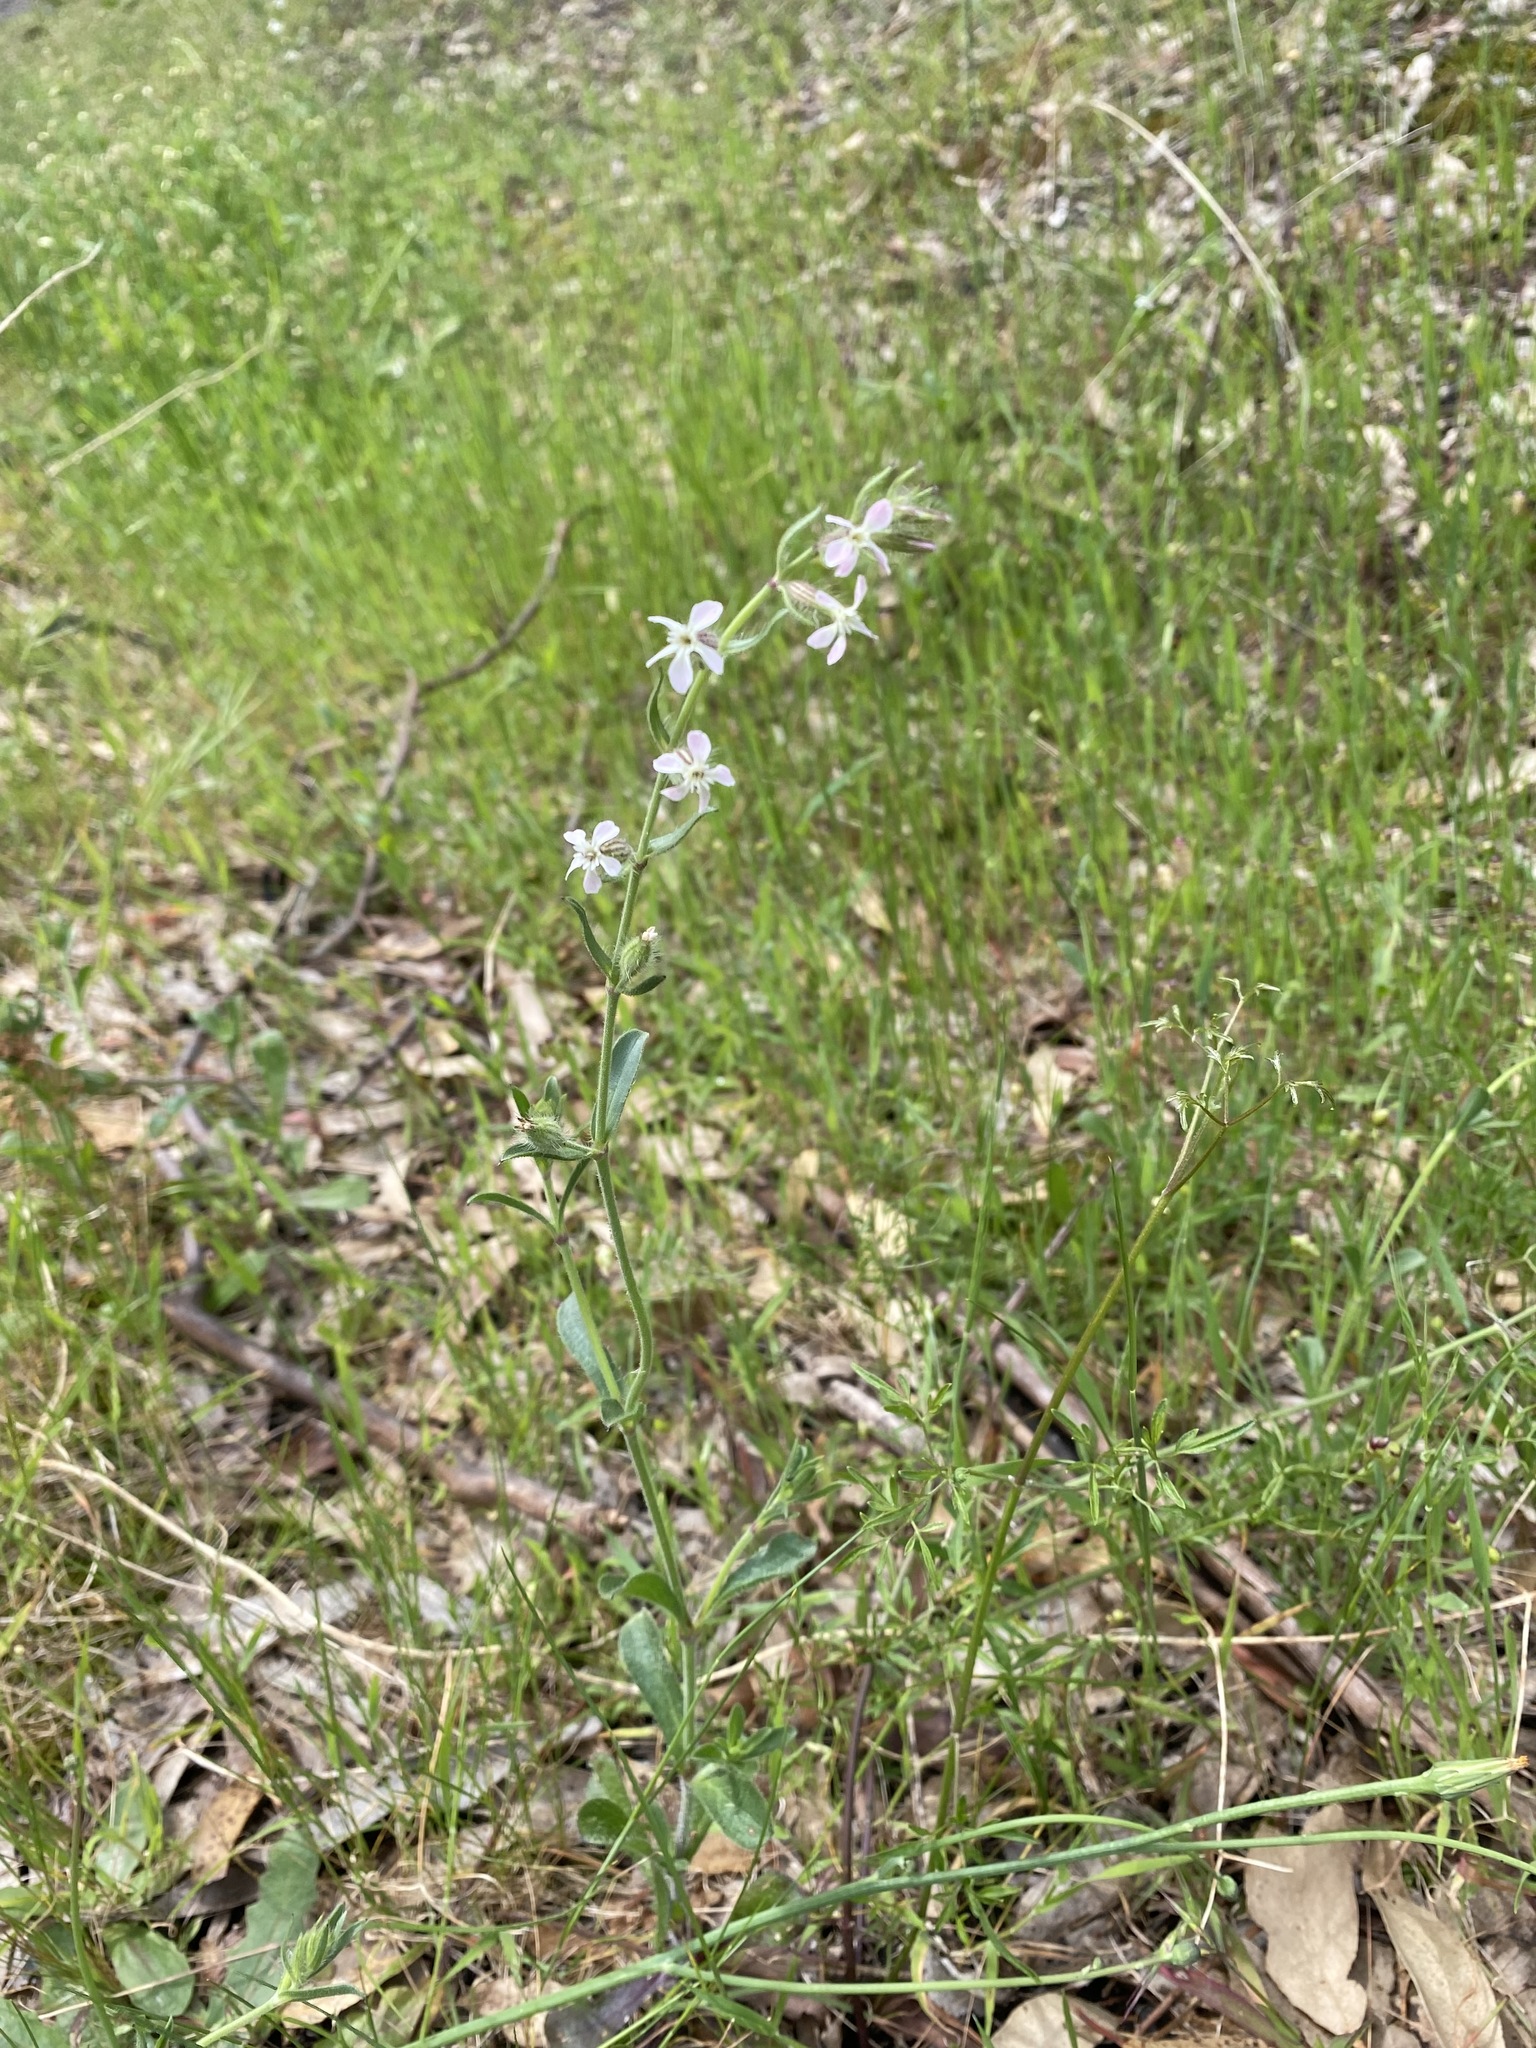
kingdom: Plantae
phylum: Tracheophyta
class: Magnoliopsida
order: Caryophyllales
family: Caryophyllaceae
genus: Silene
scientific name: Silene gallica
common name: Small-flowered catchfly
